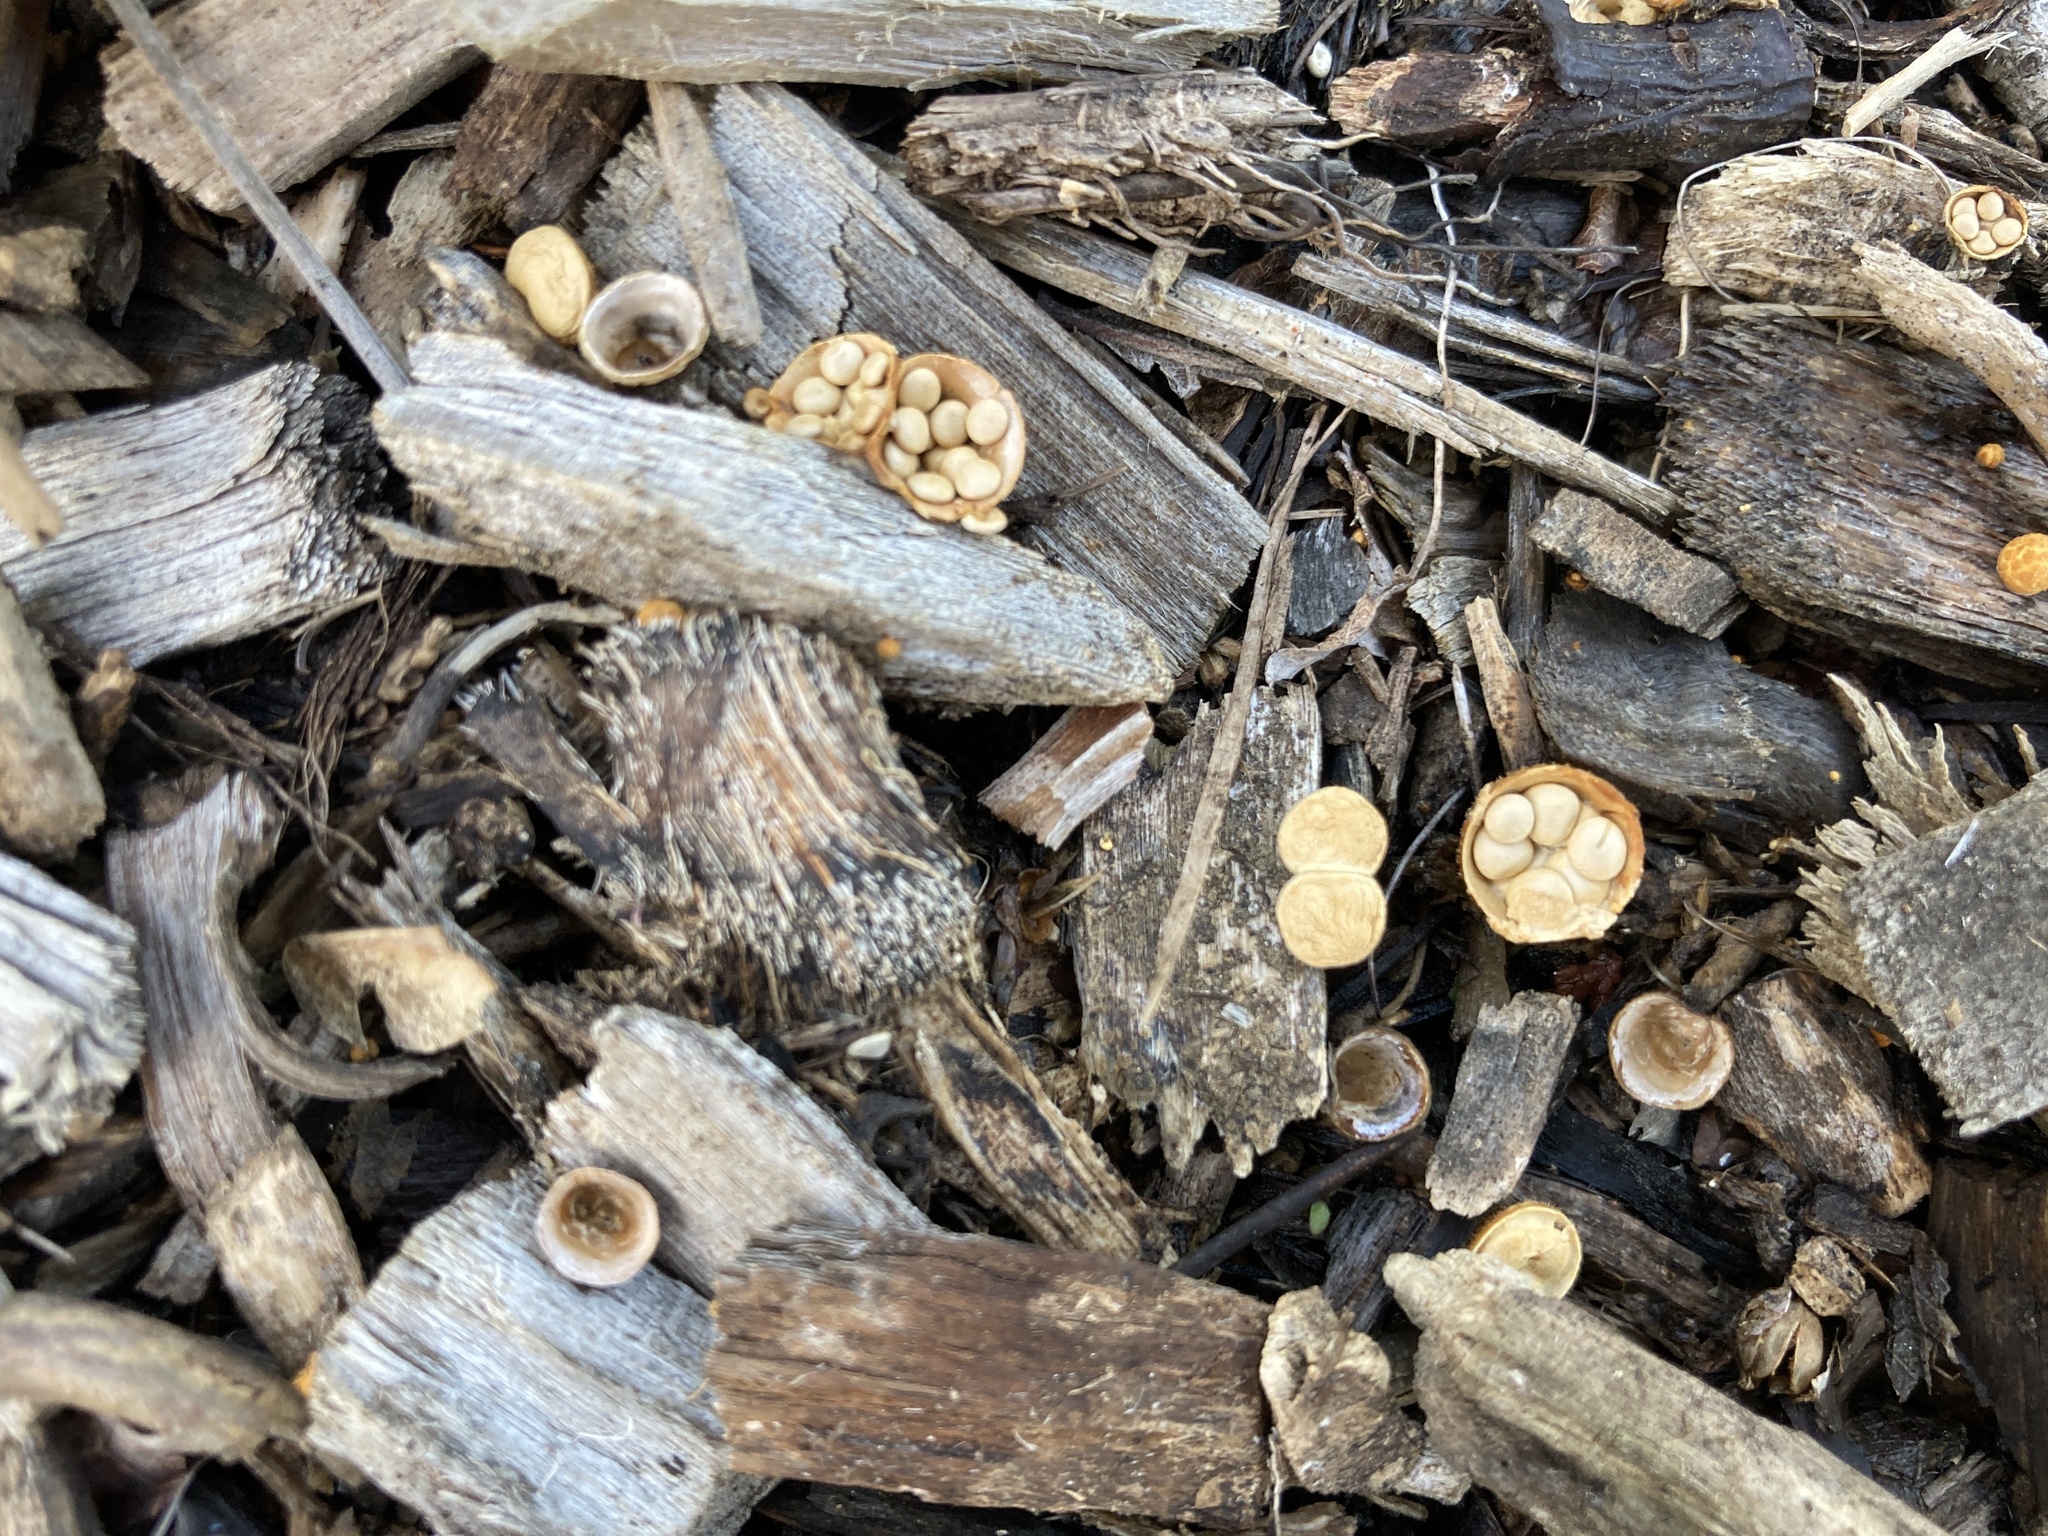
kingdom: Fungi
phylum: Basidiomycota
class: Agaricomycetes
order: Agaricales
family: Nidulariaceae
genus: Crucibulum
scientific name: Crucibulum simile
